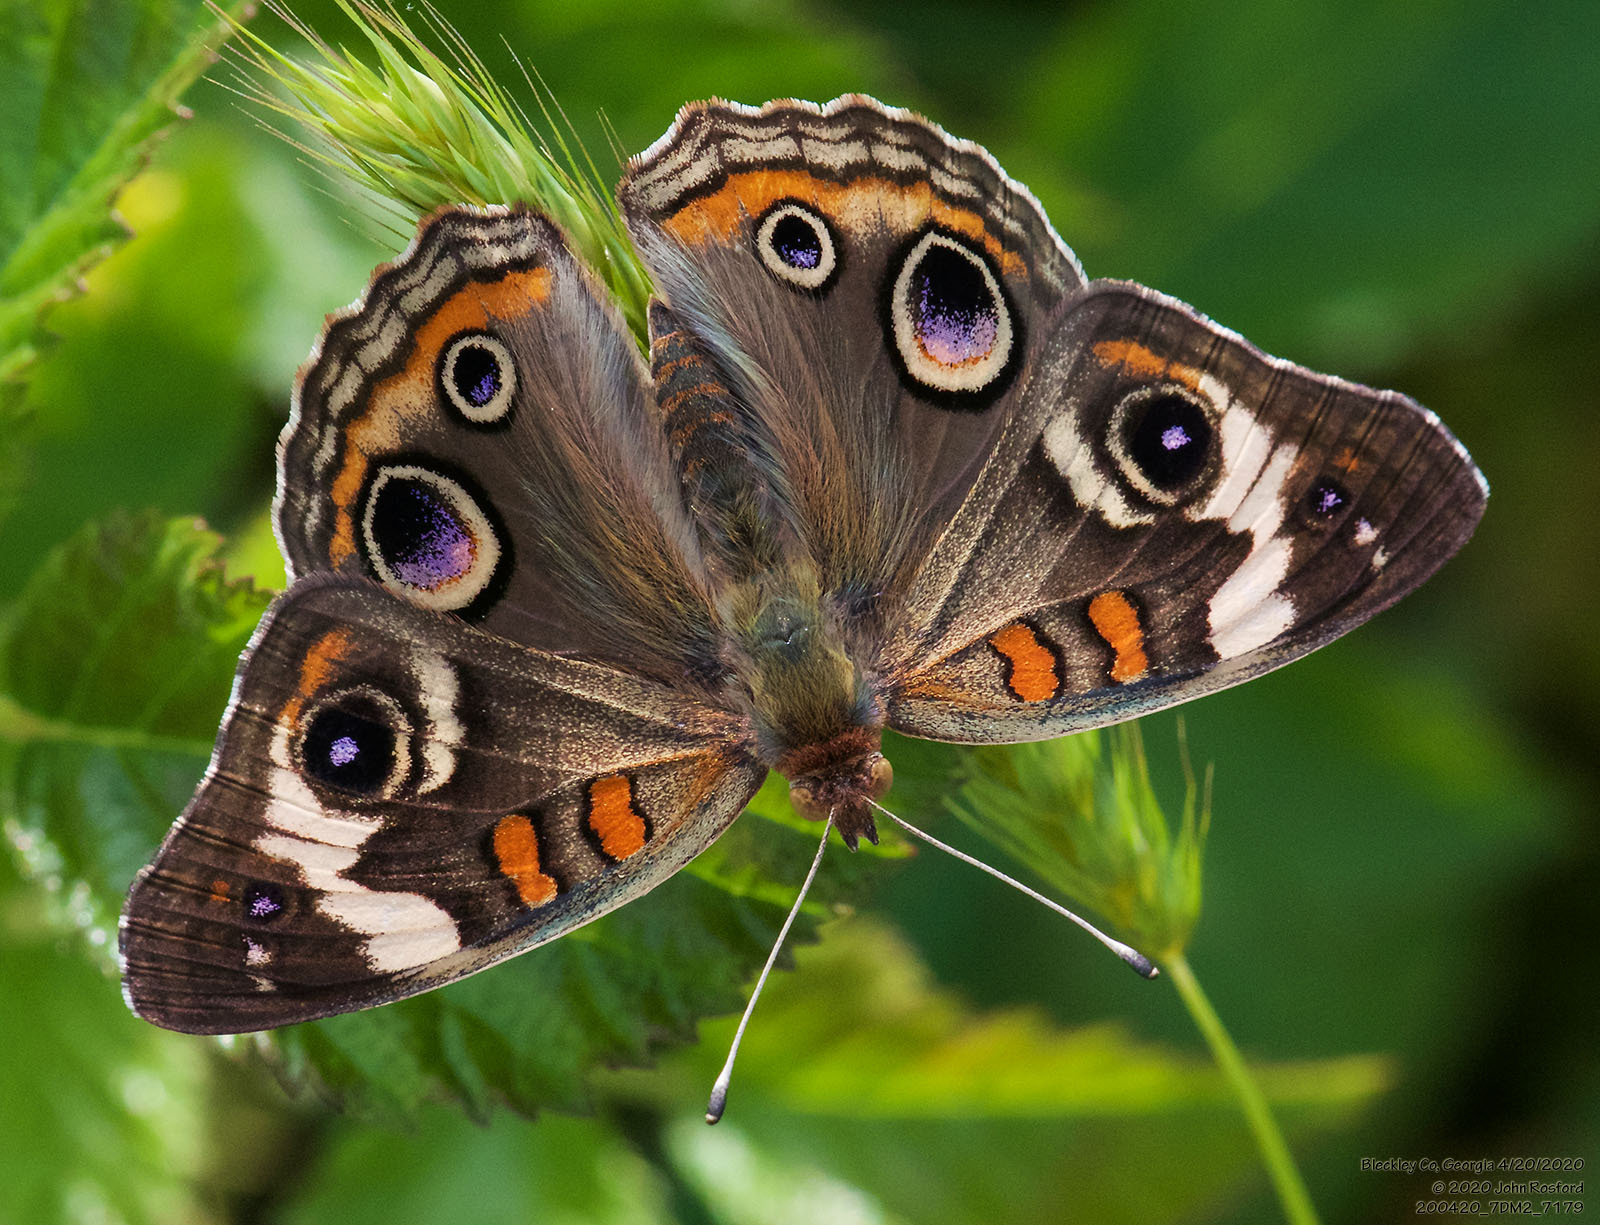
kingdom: Animalia
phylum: Arthropoda
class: Insecta
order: Lepidoptera
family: Nymphalidae
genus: Junonia
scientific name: Junonia coenia
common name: Common buckeye
